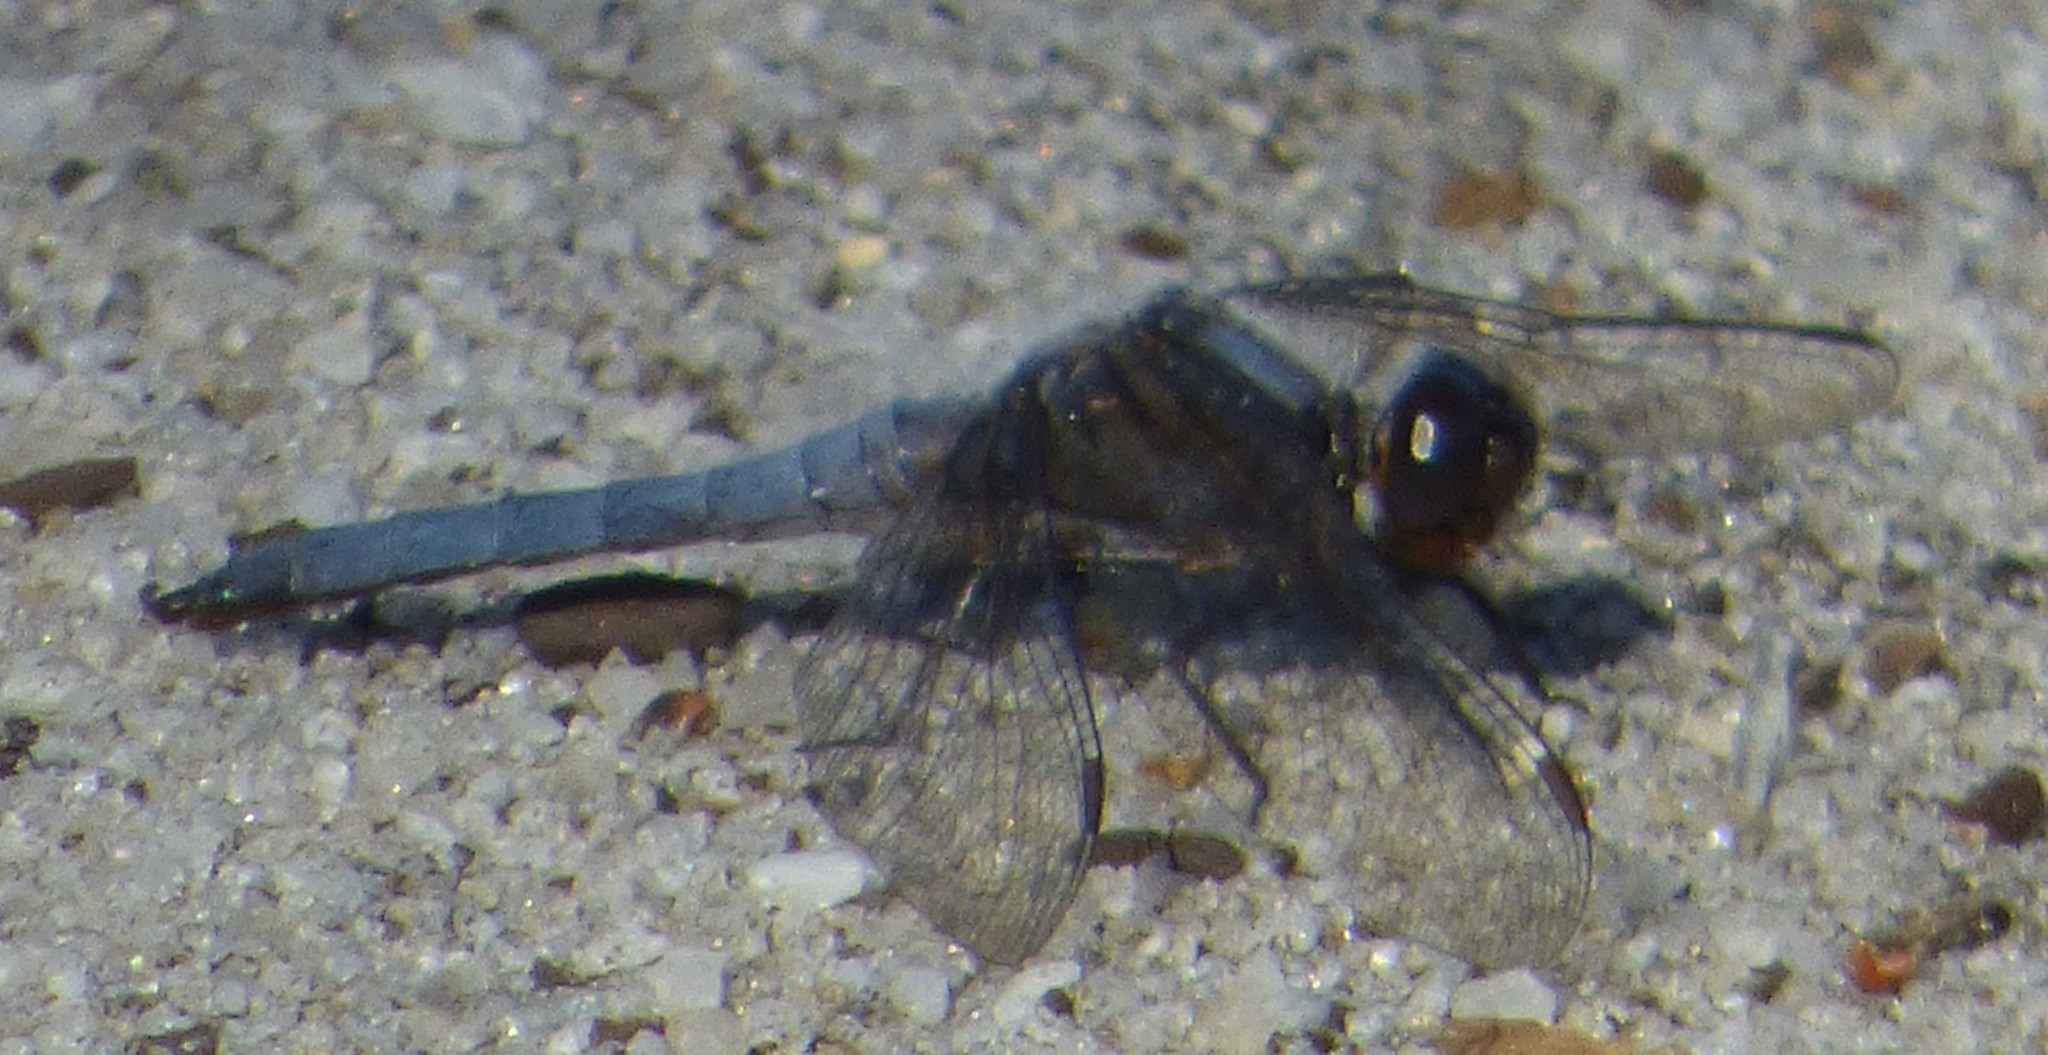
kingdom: Animalia
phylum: Arthropoda
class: Insecta
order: Odonata
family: Libellulidae
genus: Ladona
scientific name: Ladona deplanata
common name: Blue corporal
